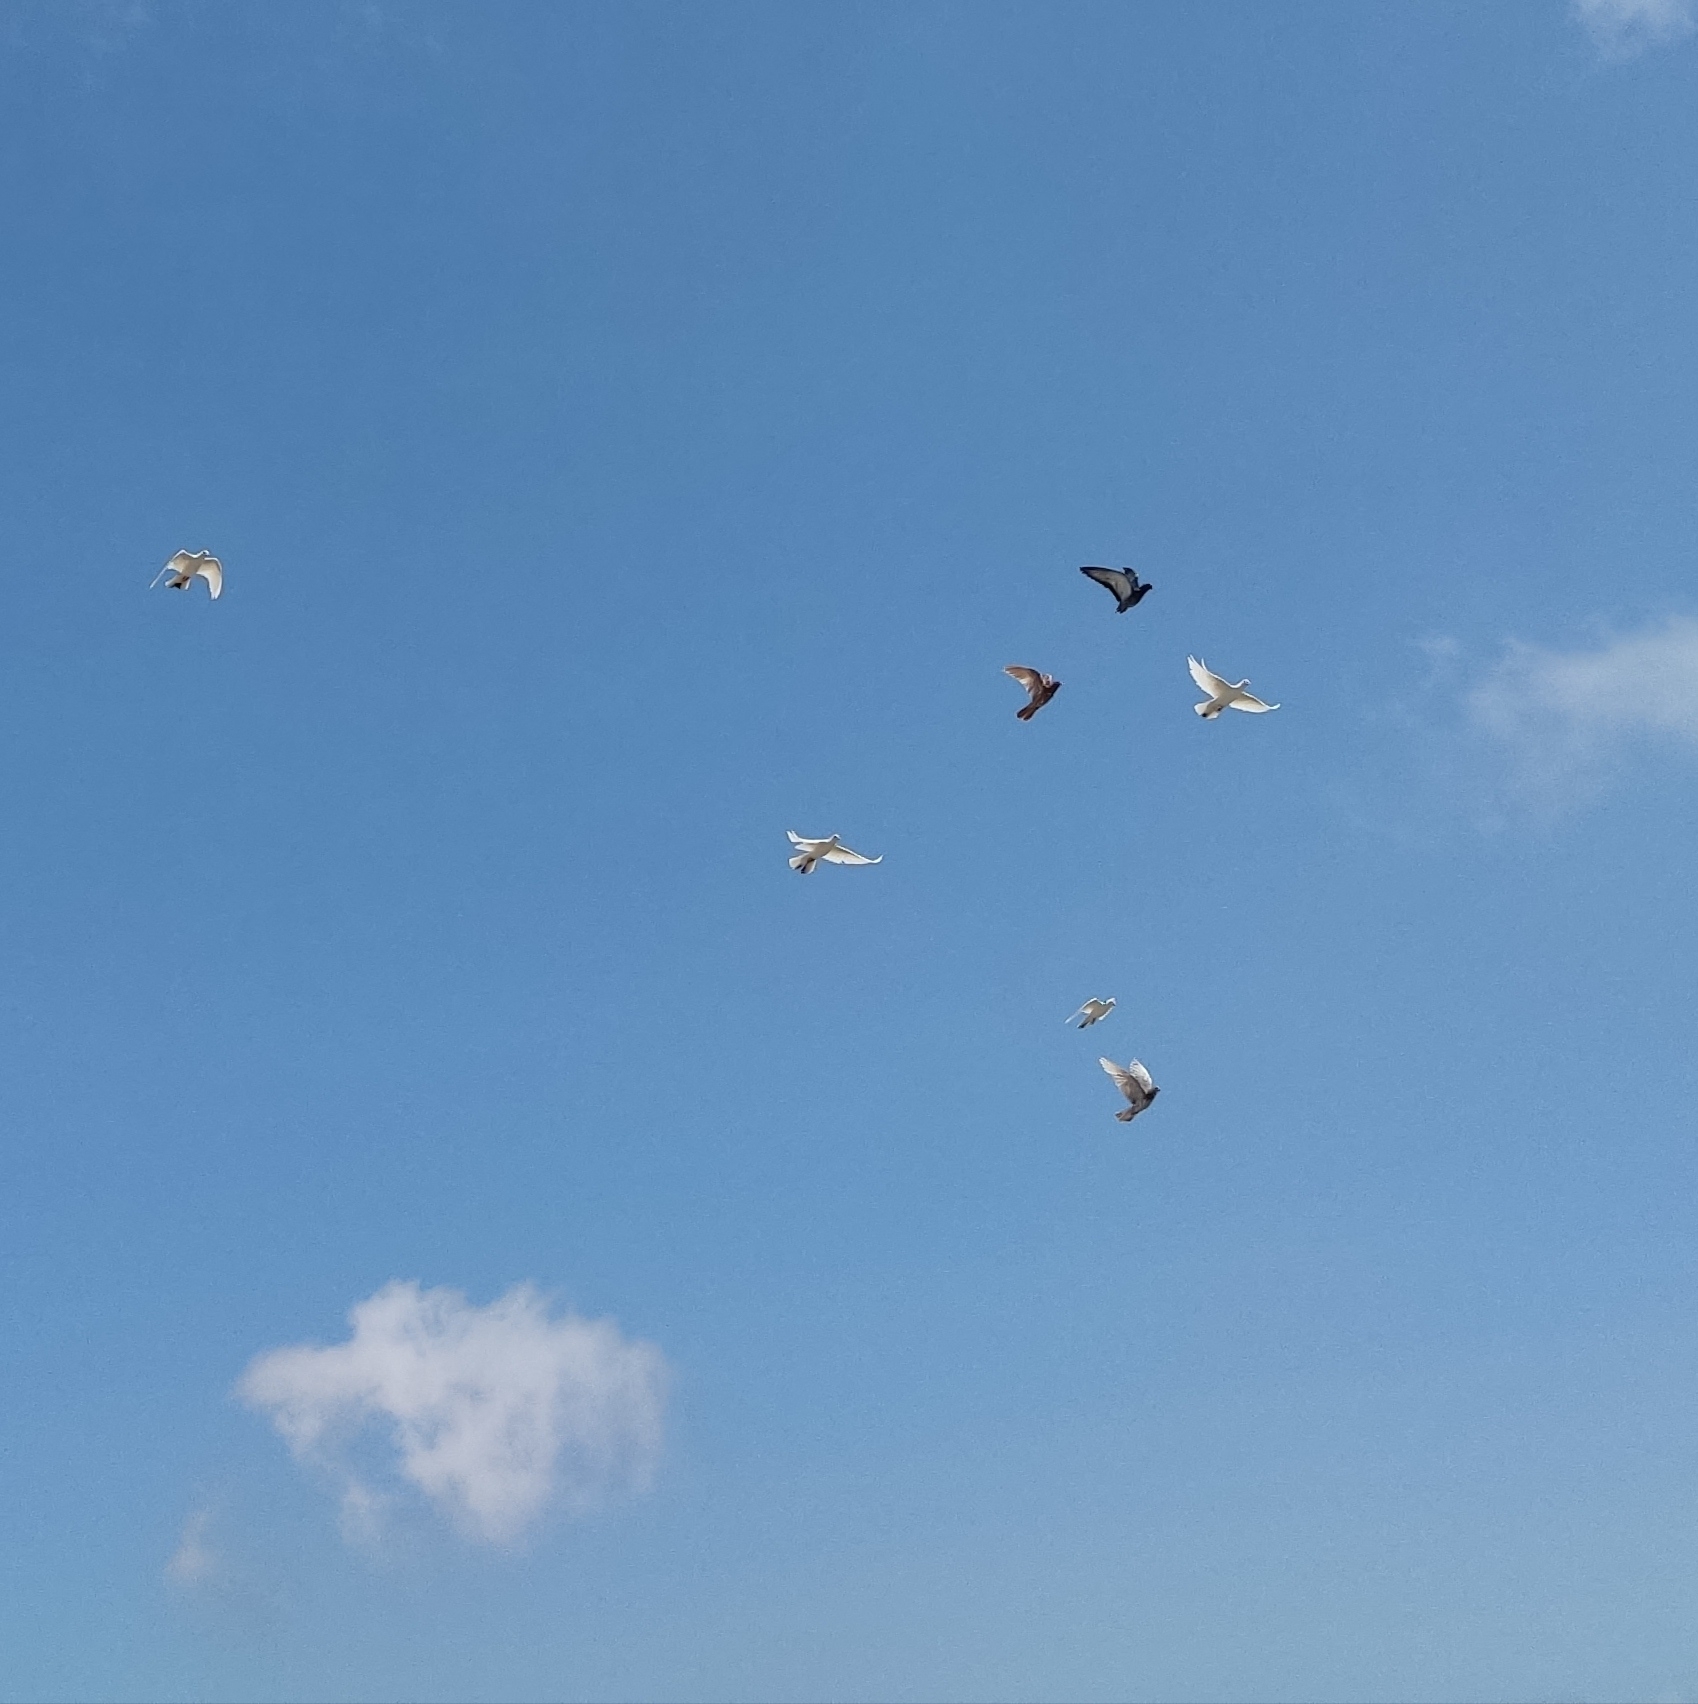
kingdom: Animalia
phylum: Chordata
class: Aves
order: Columbiformes
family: Columbidae
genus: Columba
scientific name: Columba livia
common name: Rock pigeon
